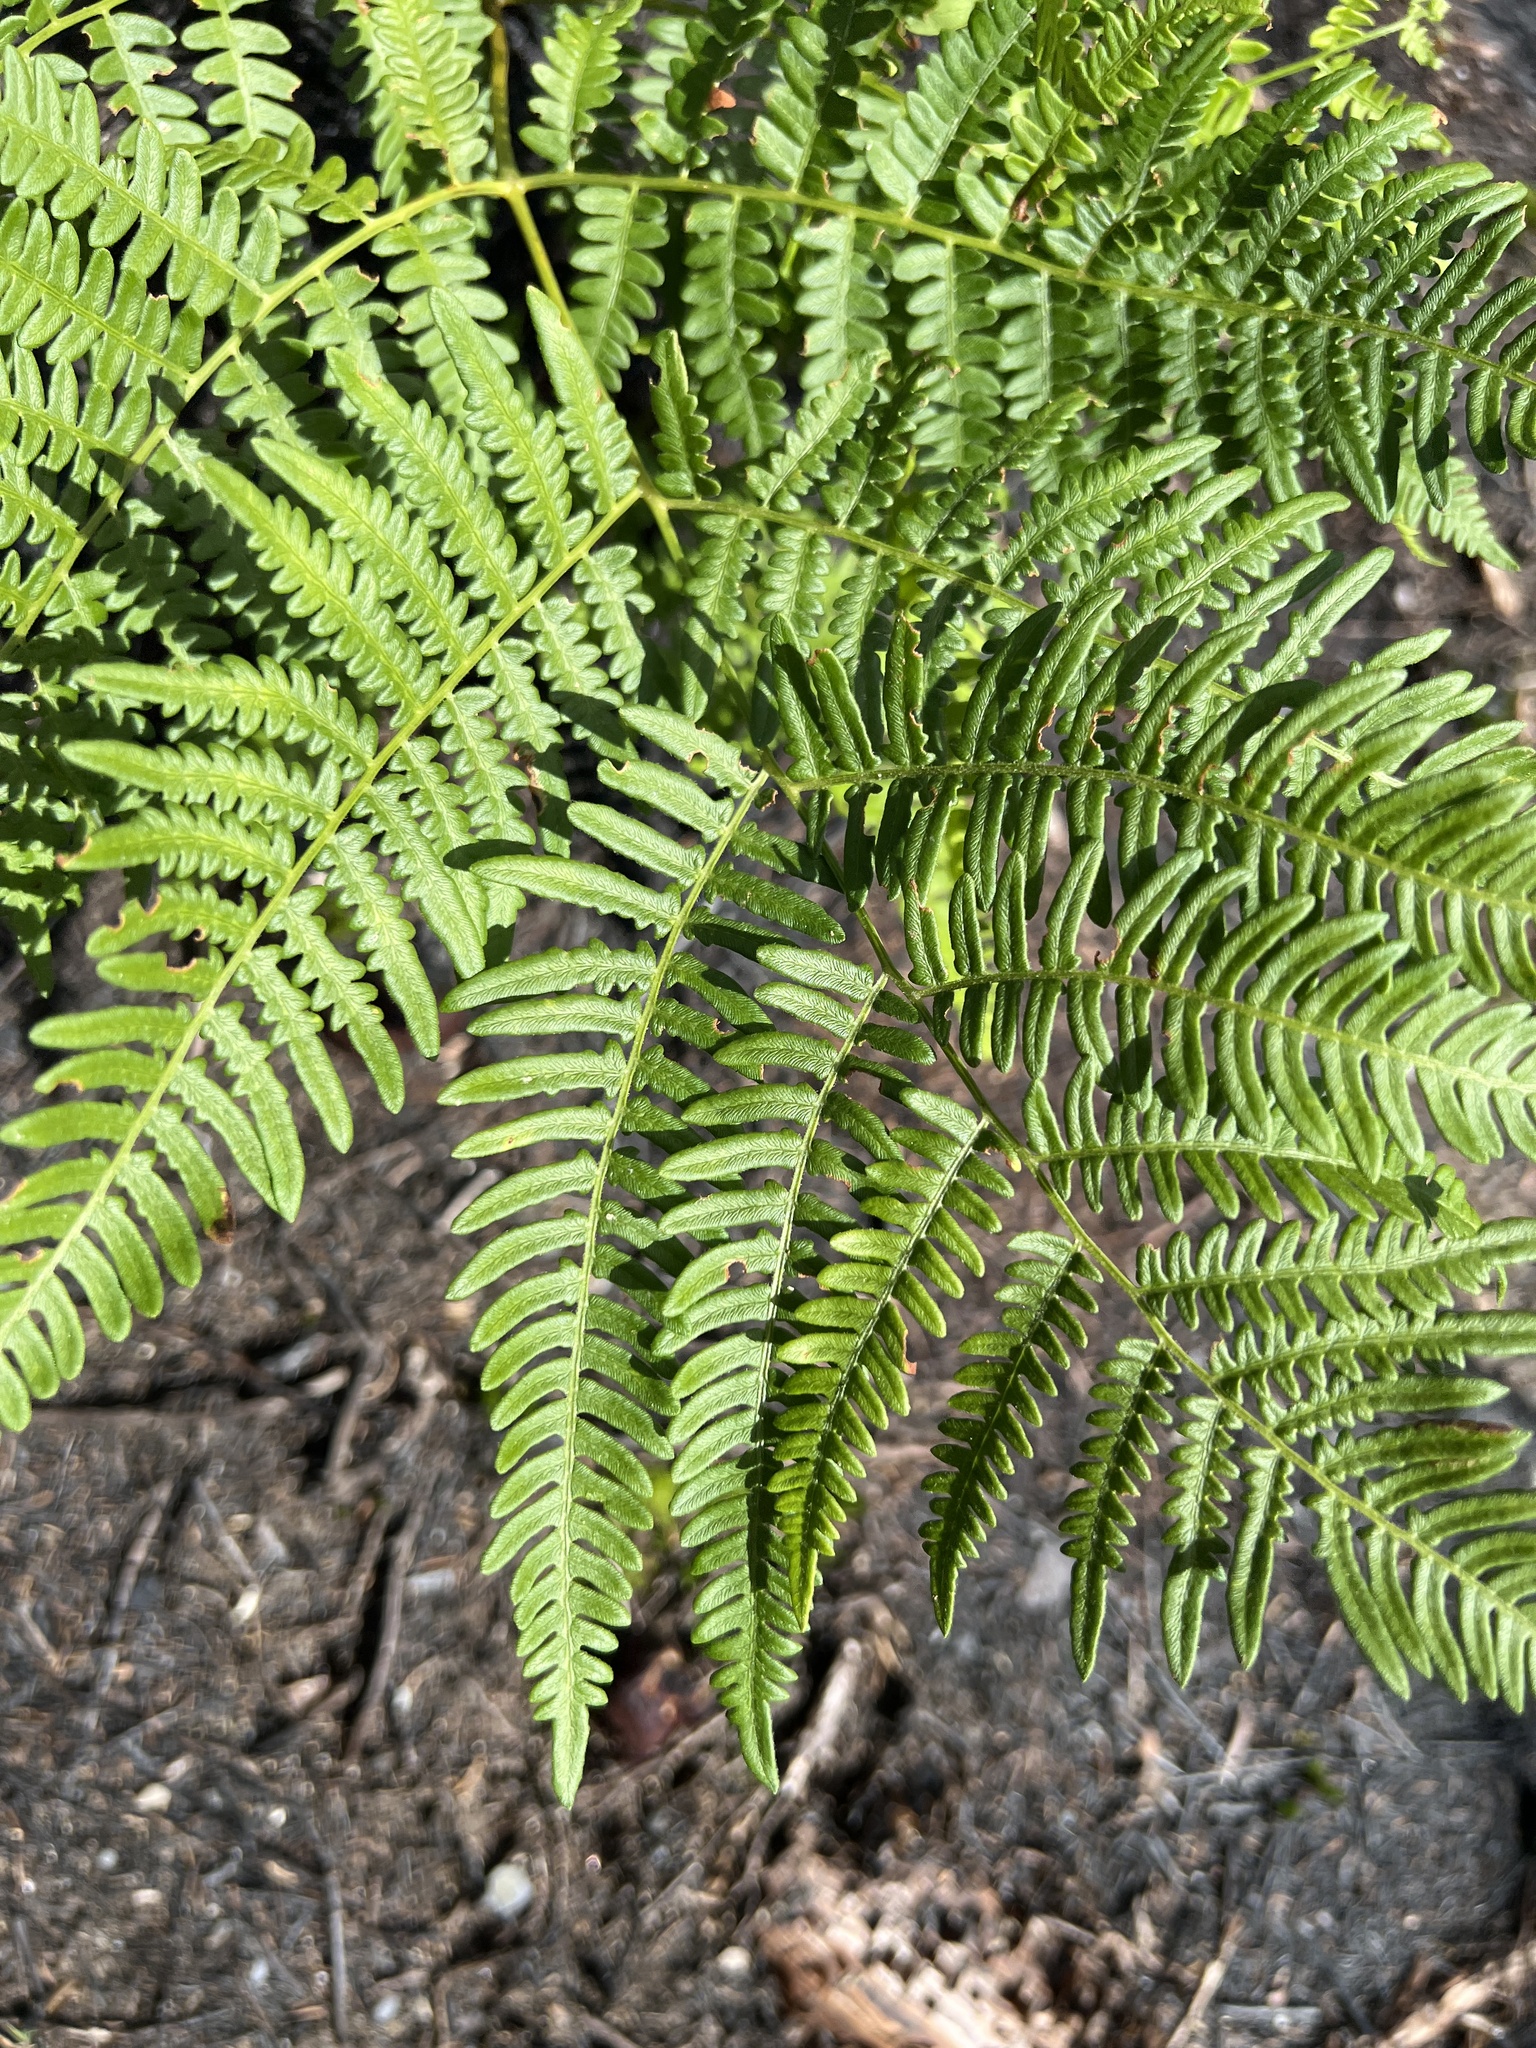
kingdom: Plantae
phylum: Tracheophyta
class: Polypodiopsida
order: Polypodiales
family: Dennstaedtiaceae
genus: Pteridium
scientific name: Pteridium aquilinum
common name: Bracken
